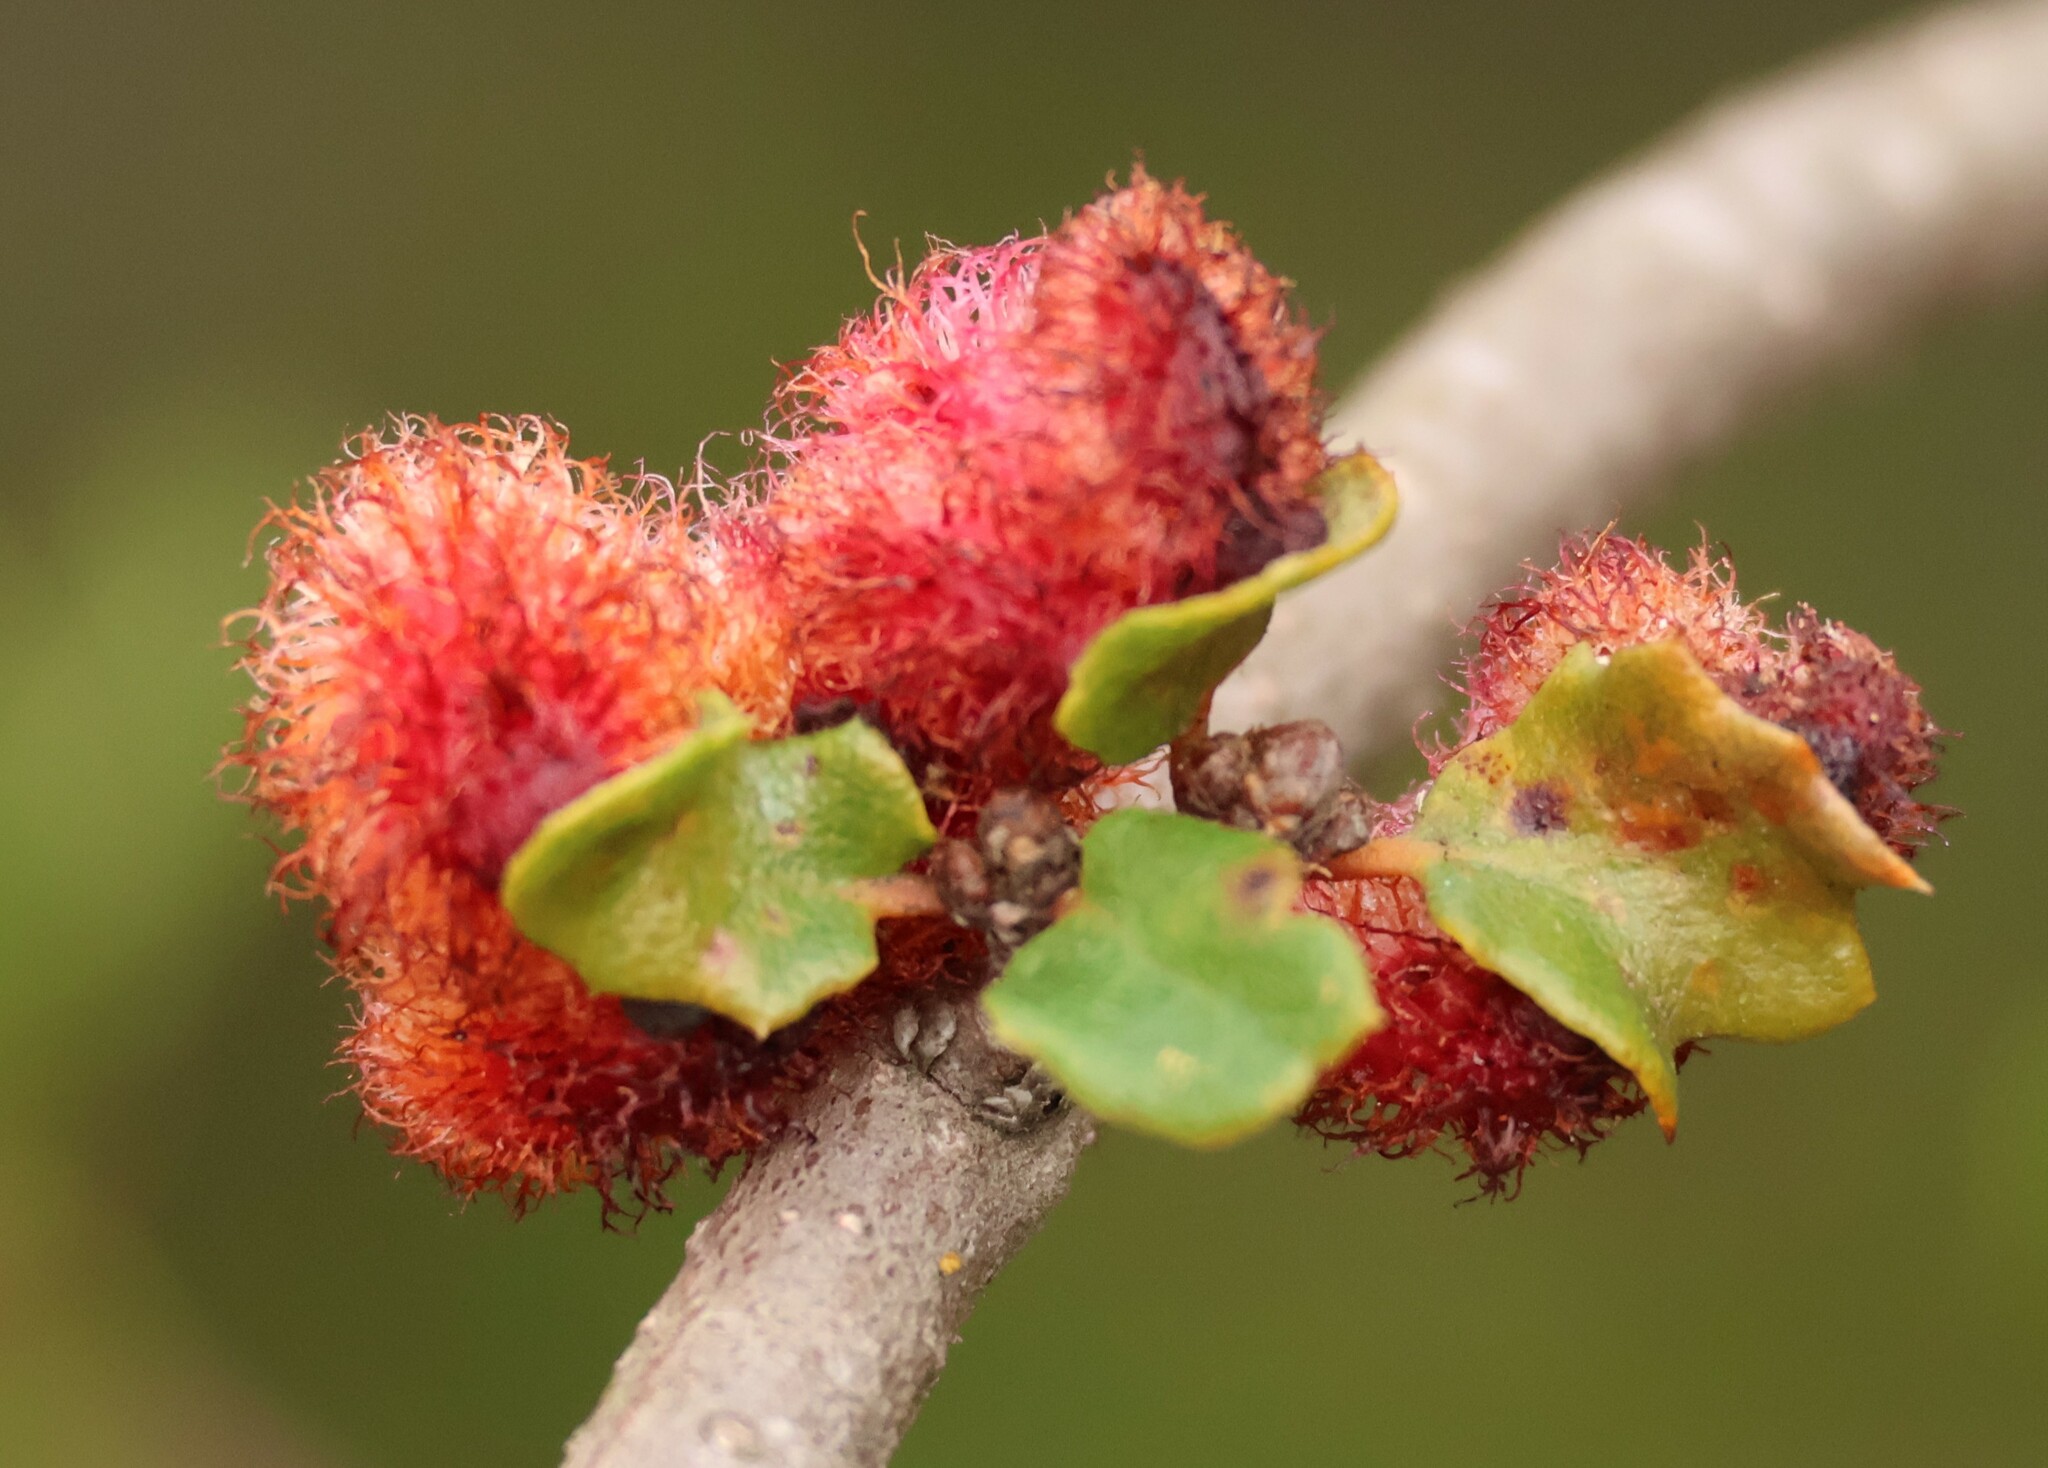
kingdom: Animalia
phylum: Arthropoda
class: Insecta
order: Hymenoptera
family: Cynipidae
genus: Andricus
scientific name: Andricus
